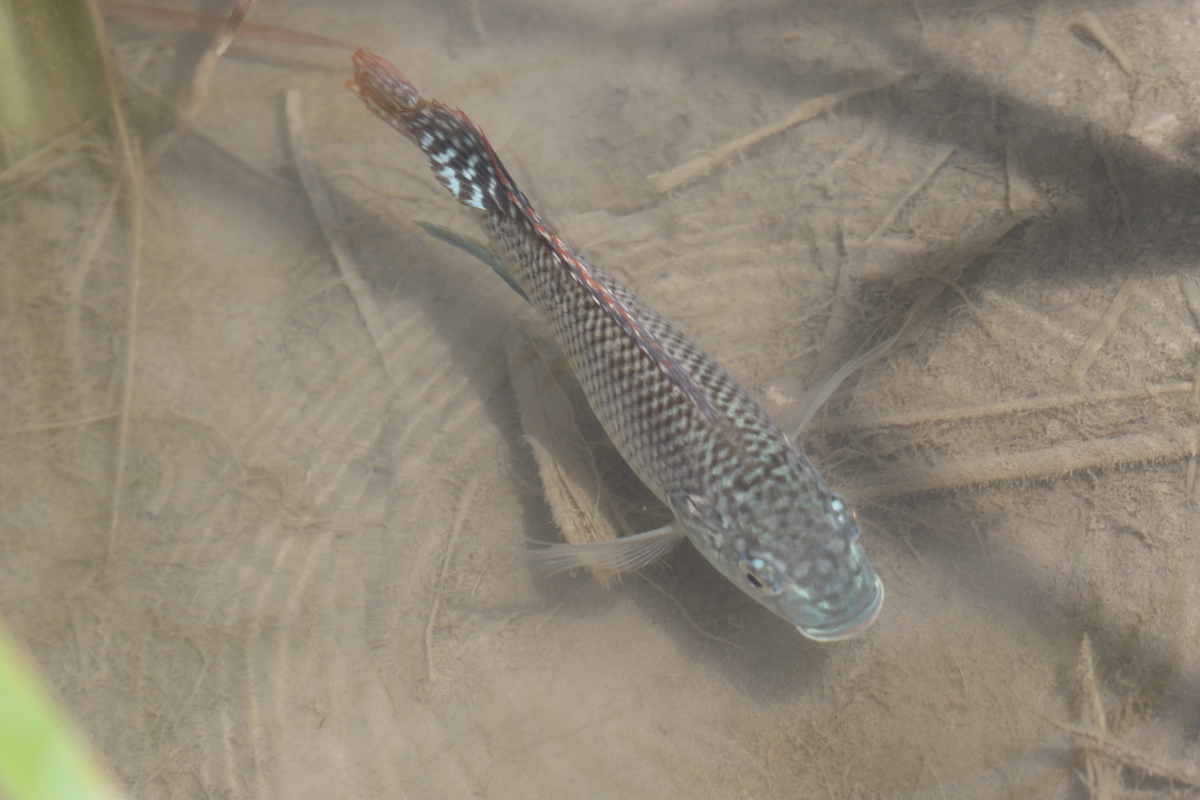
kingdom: Animalia
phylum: Chordata
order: Perciformes
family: Cichlidae
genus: Oreochromis
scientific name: Oreochromis aureus
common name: Blue tilapia
